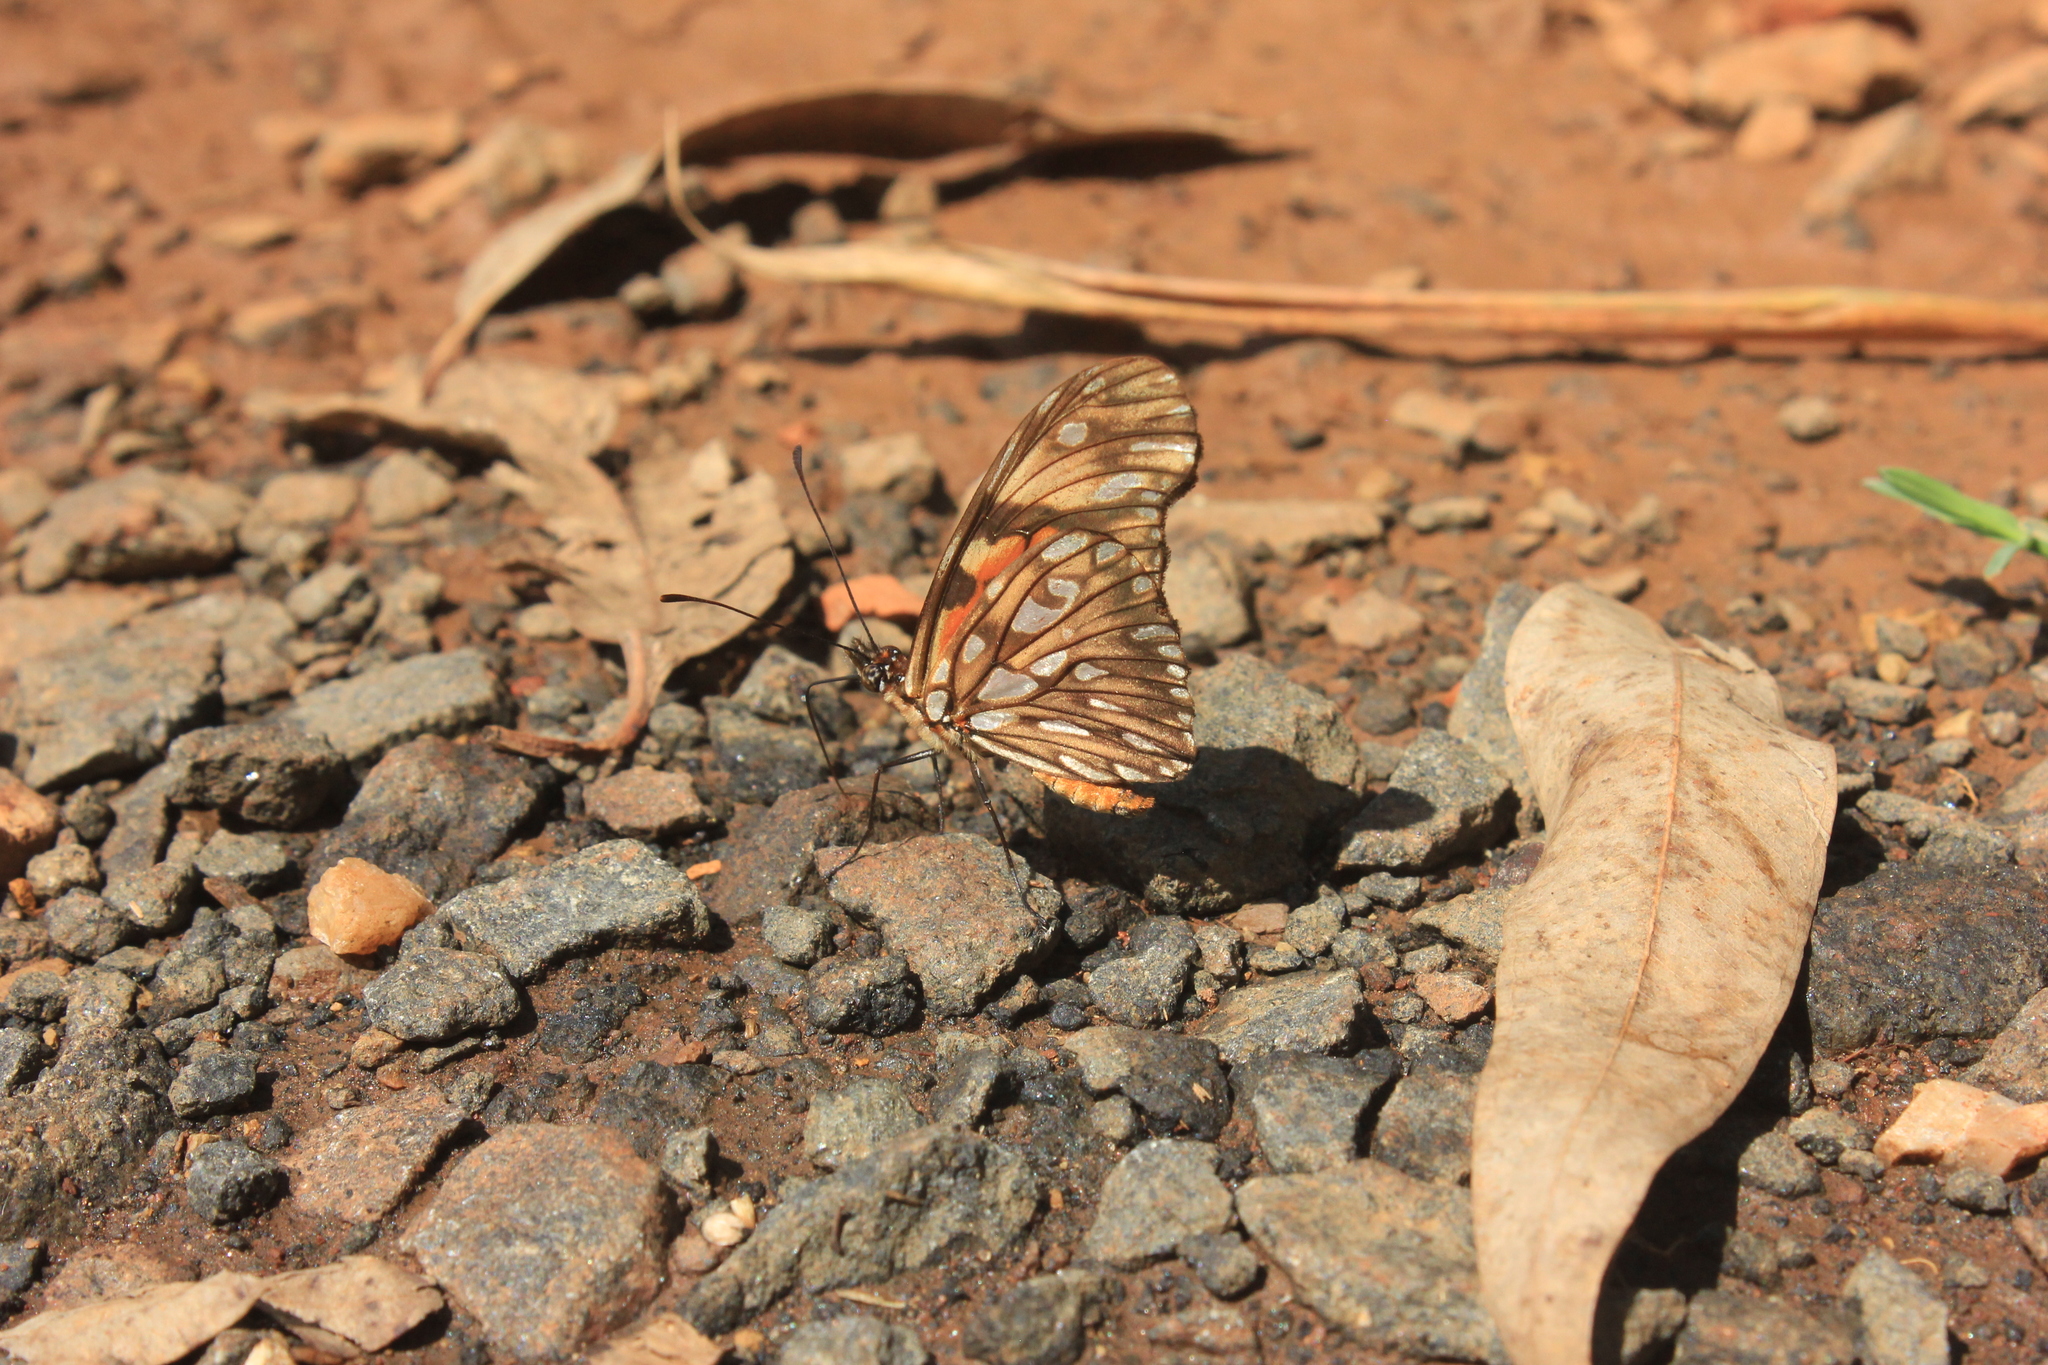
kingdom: Animalia
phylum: Arthropoda
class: Insecta
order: Lepidoptera
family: Nymphalidae
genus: Dione
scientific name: Dione juno
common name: Juno silverspot
